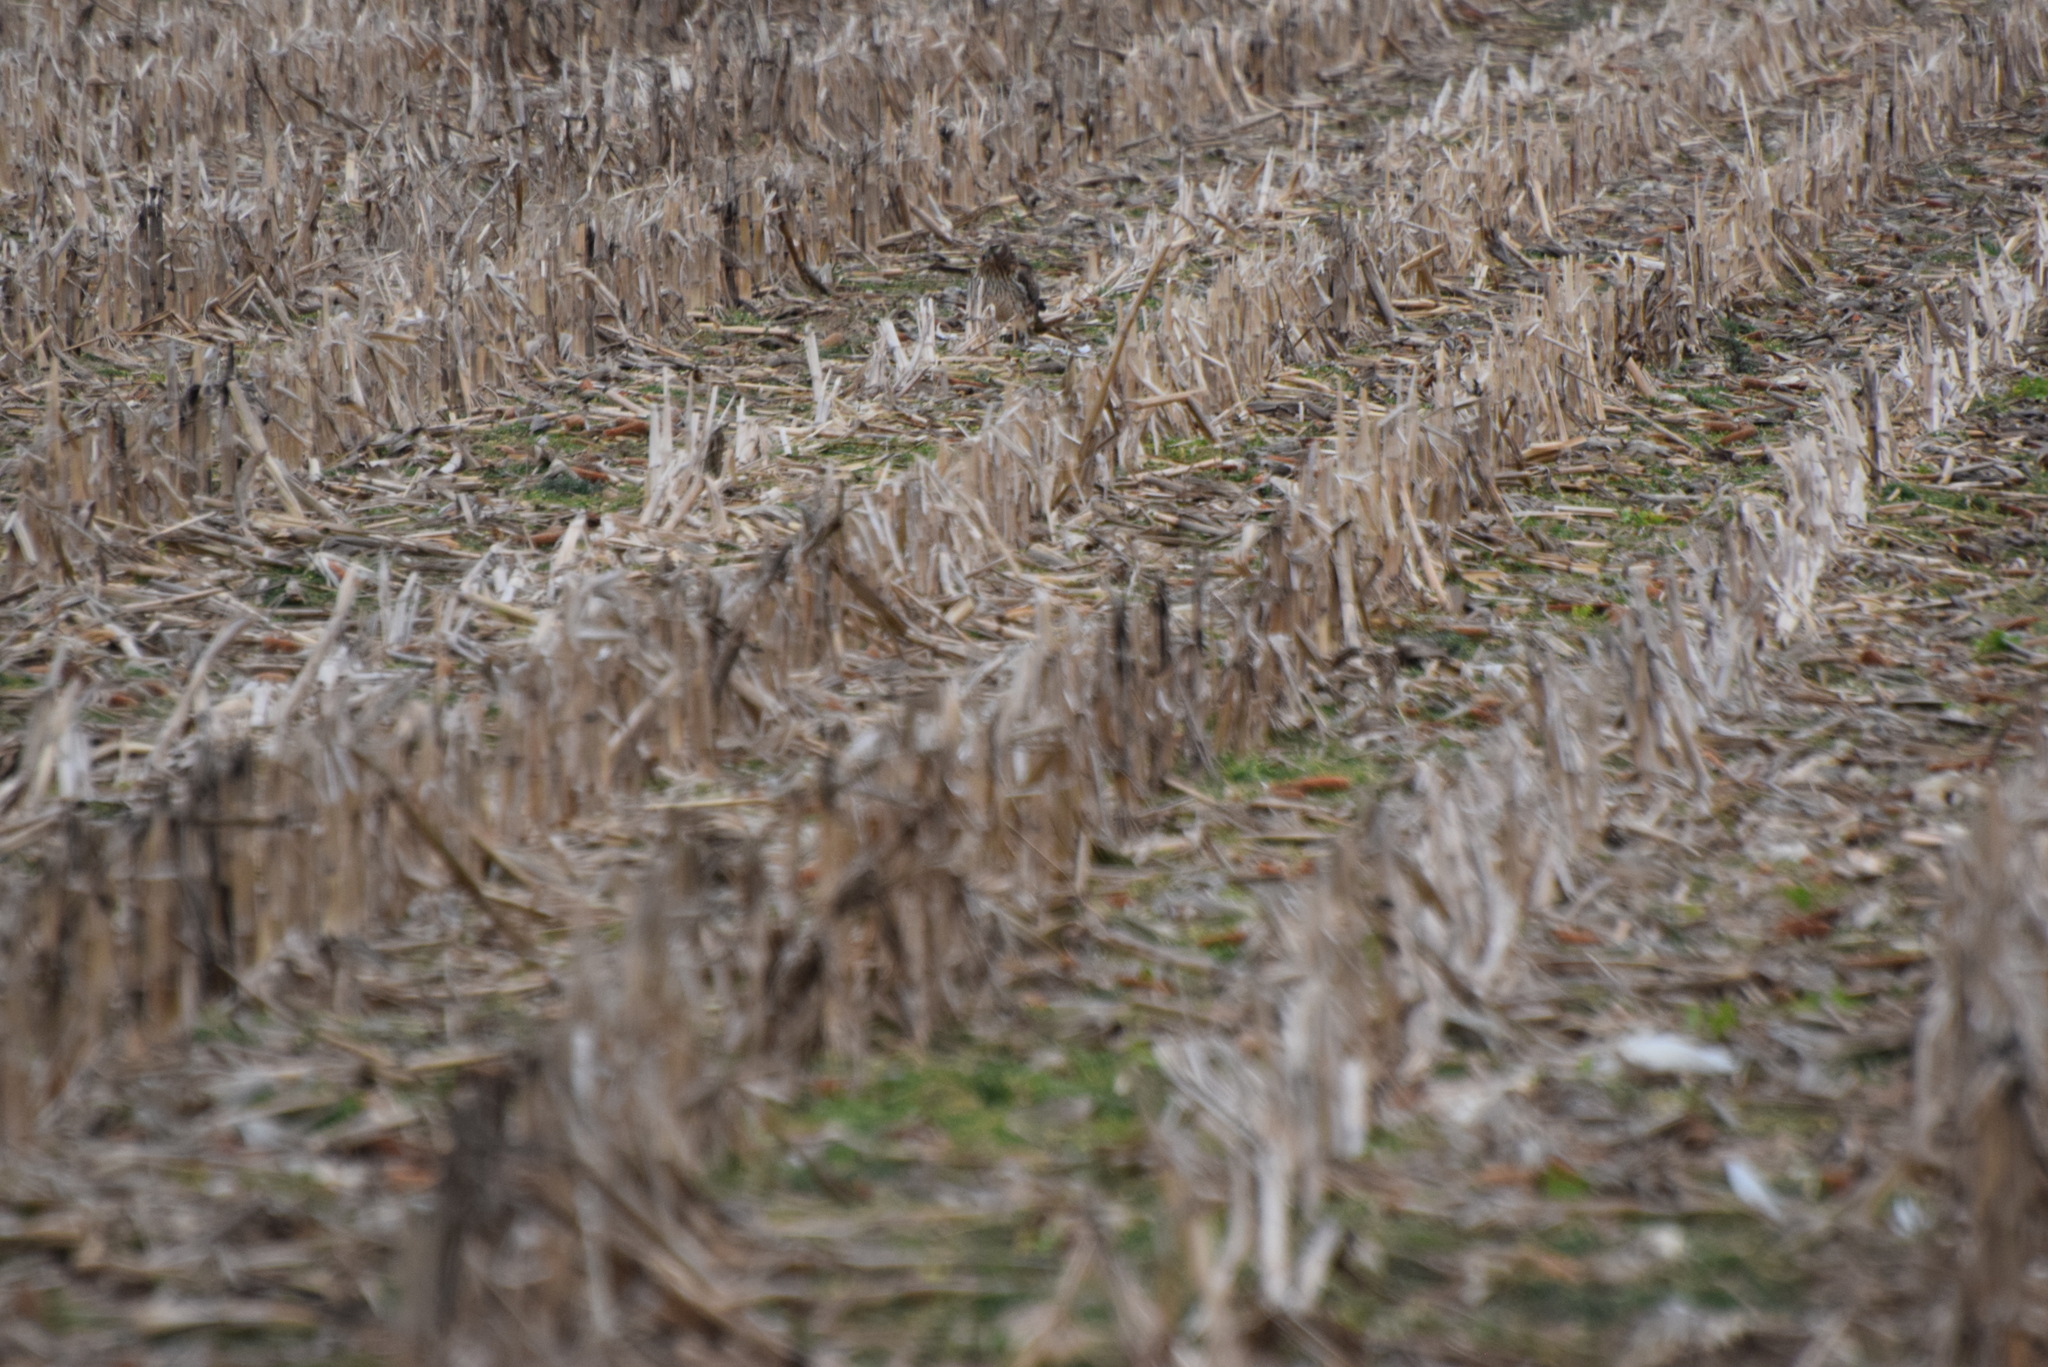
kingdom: Animalia
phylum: Chordata
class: Aves
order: Accipitriformes
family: Accipitridae
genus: Circus
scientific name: Circus cyaneus
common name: Hen harrier
